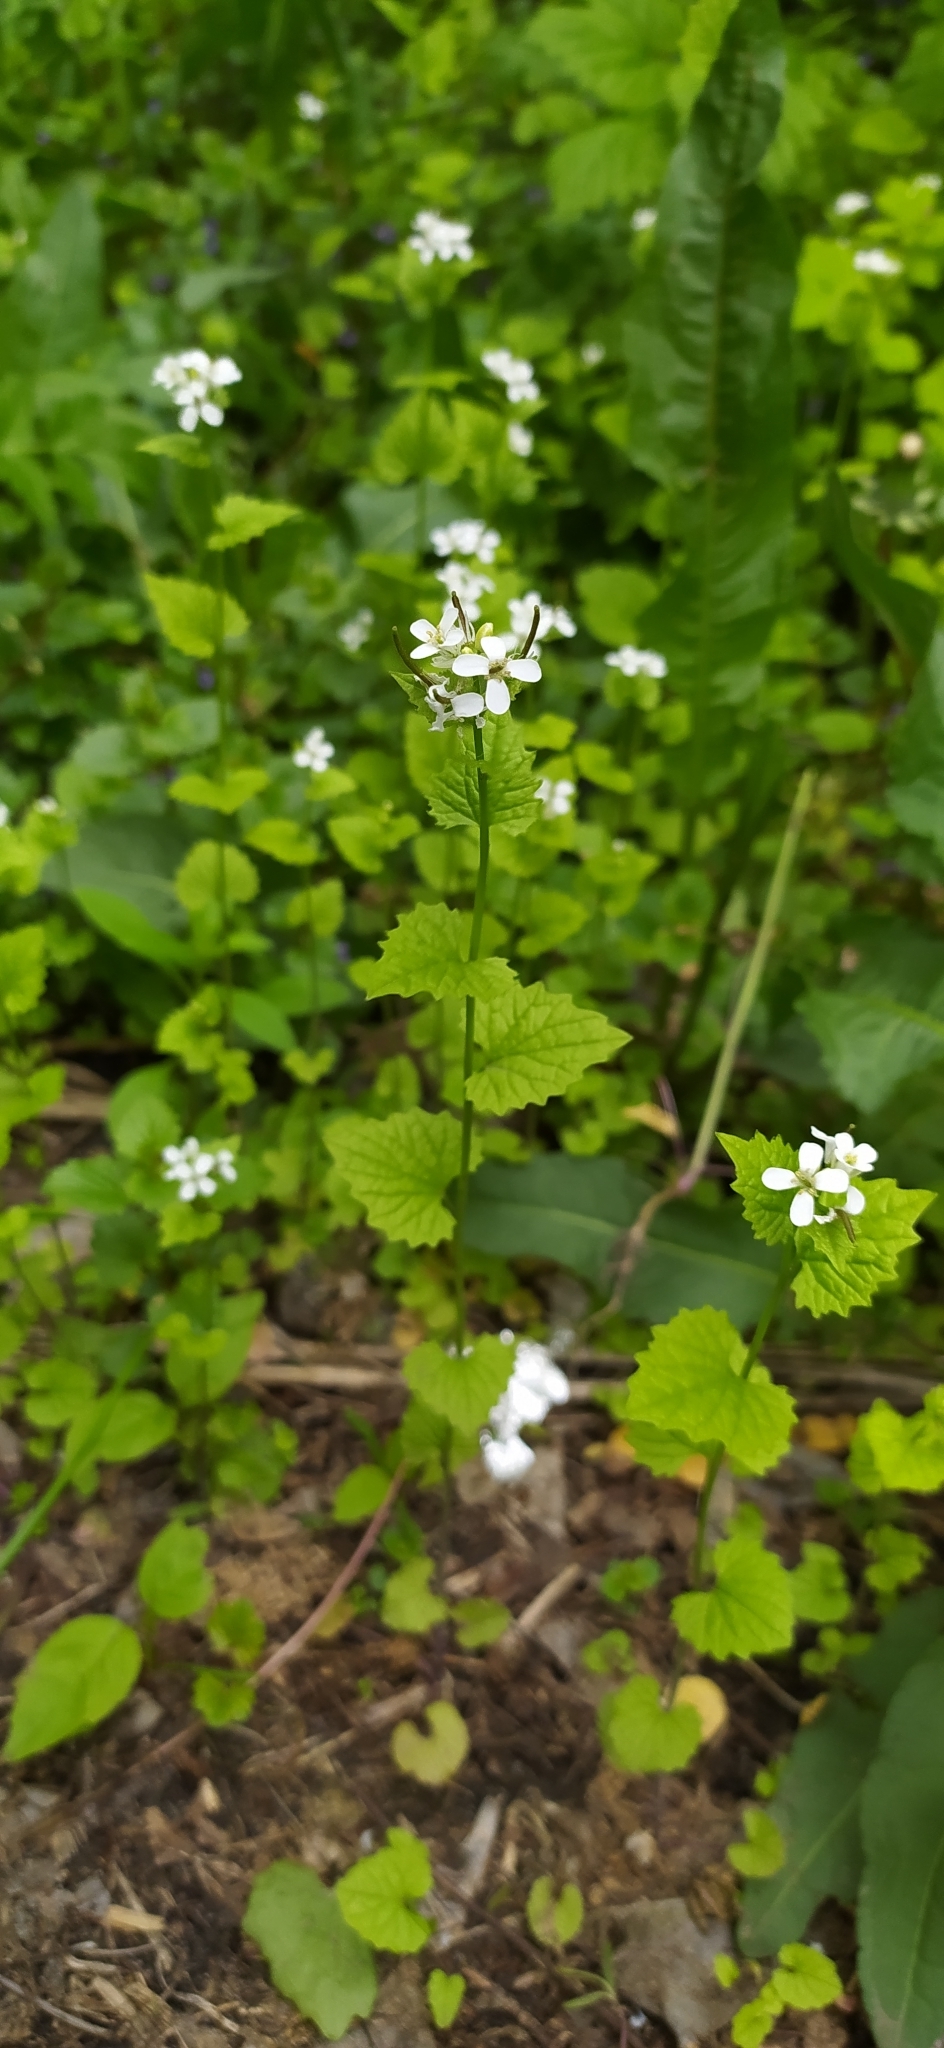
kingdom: Plantae
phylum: Tracheophyta
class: Magnoliopsida
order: Brassicales
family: Brassicaceae
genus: Alliaria
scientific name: Alliaria petiolata
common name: Garlic mustard
